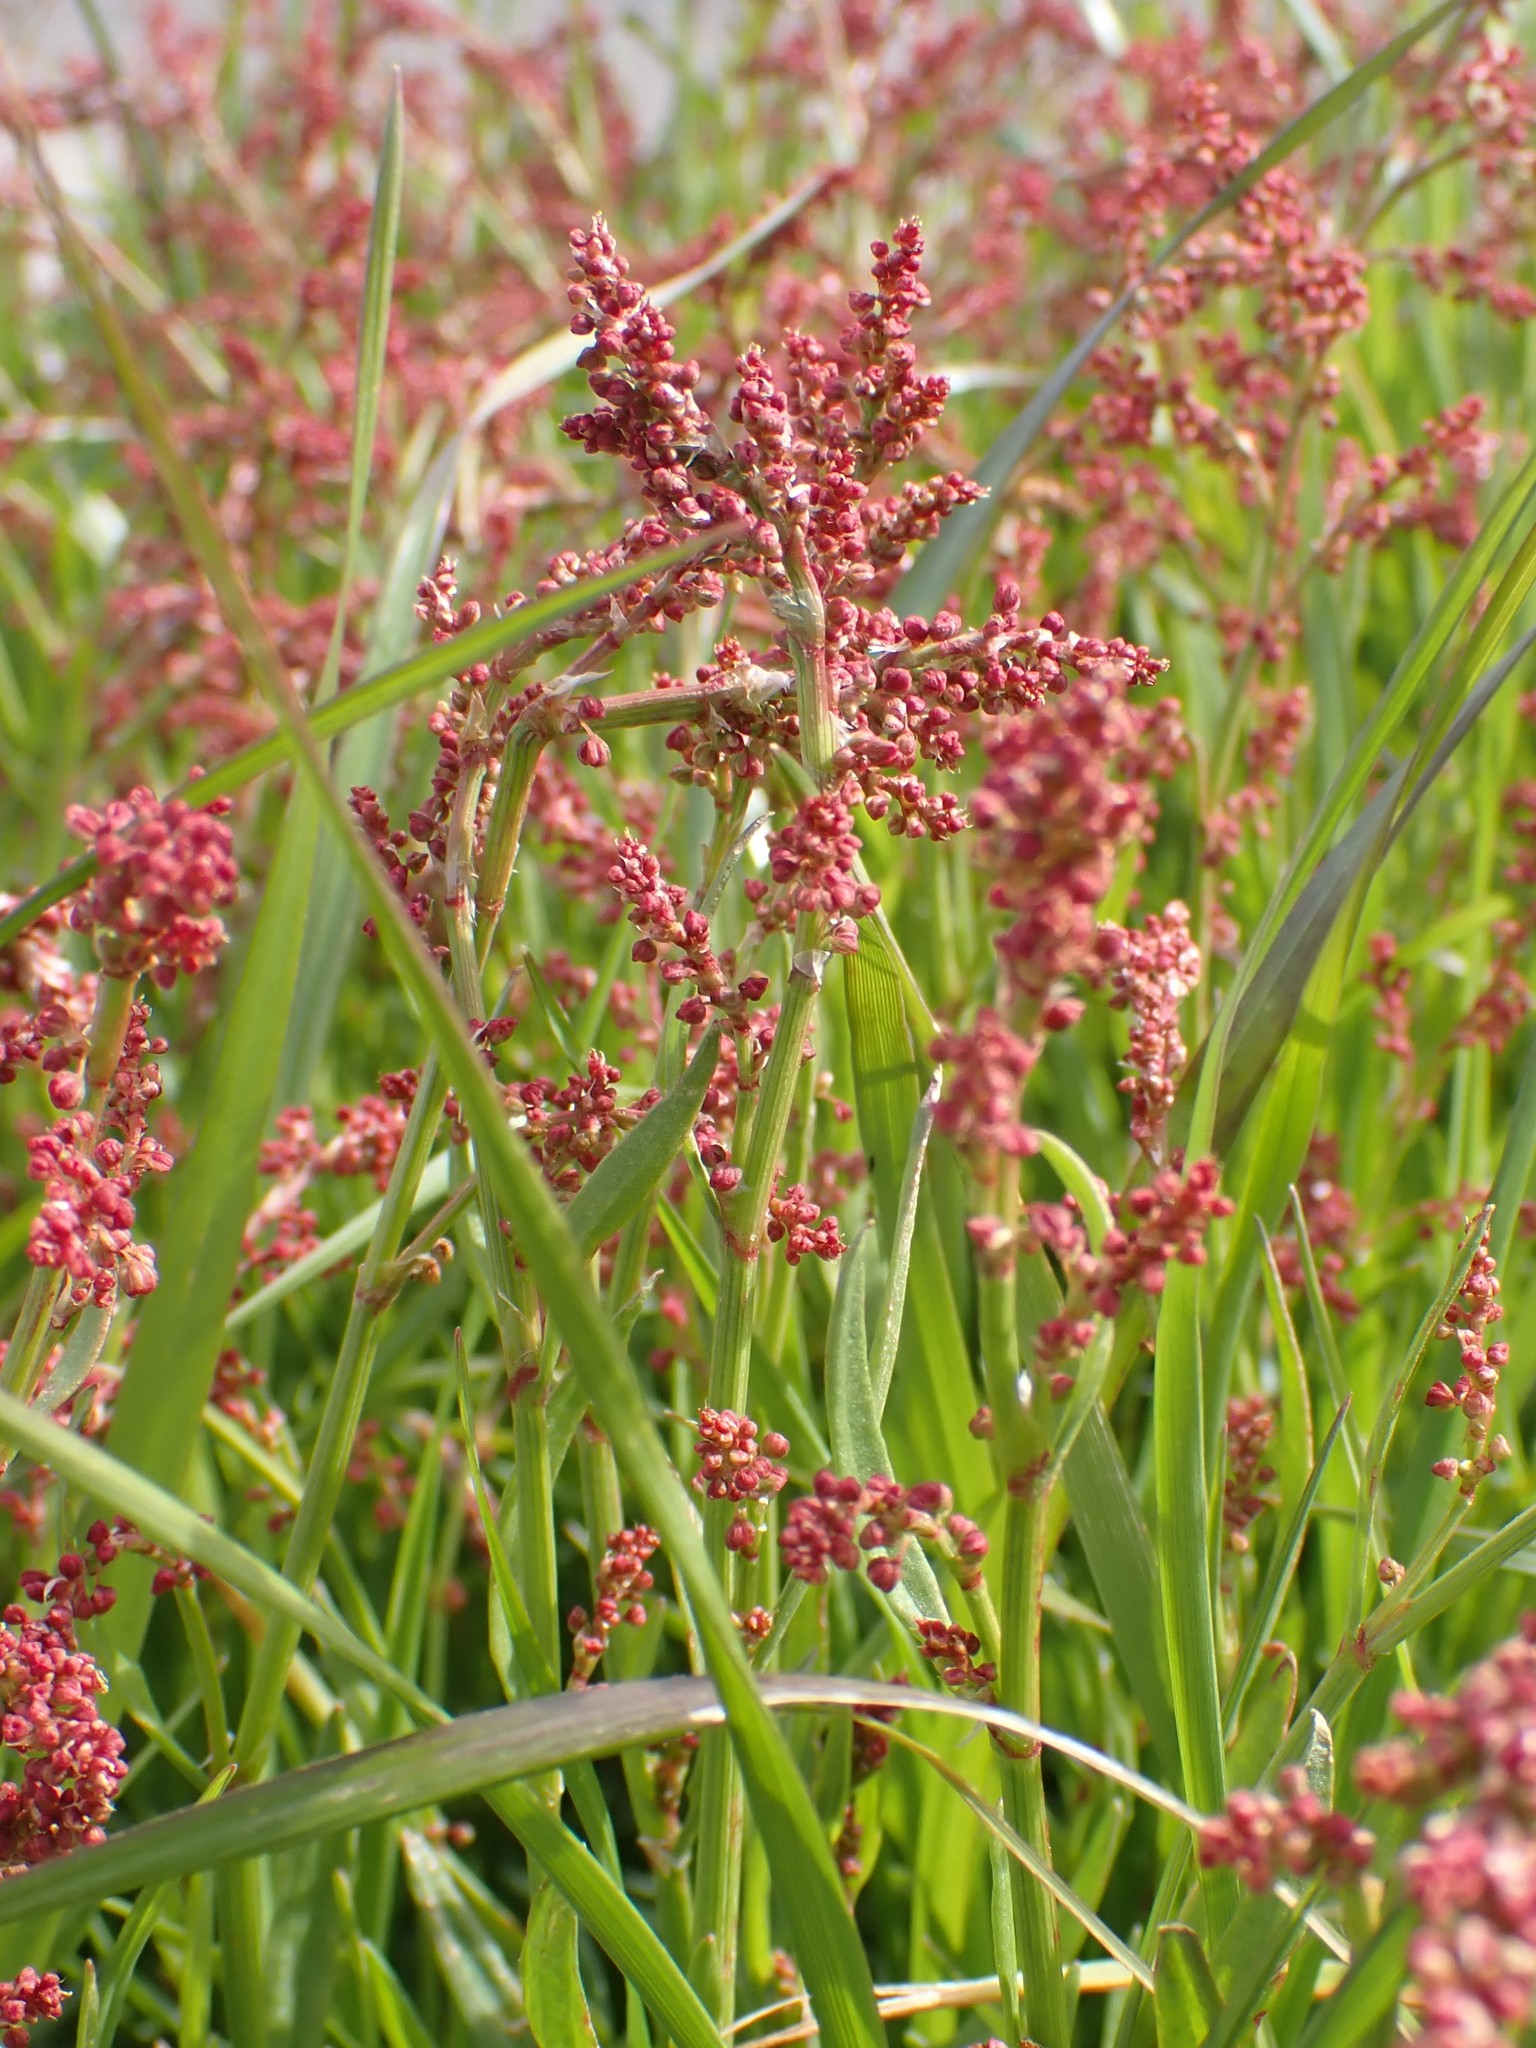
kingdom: Plantae
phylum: Tracheophyta
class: Magnoliopsida
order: Caryophyllales
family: Polygonaceae
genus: Rumex
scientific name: Rumex acetosella
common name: Common sheep sorrel
